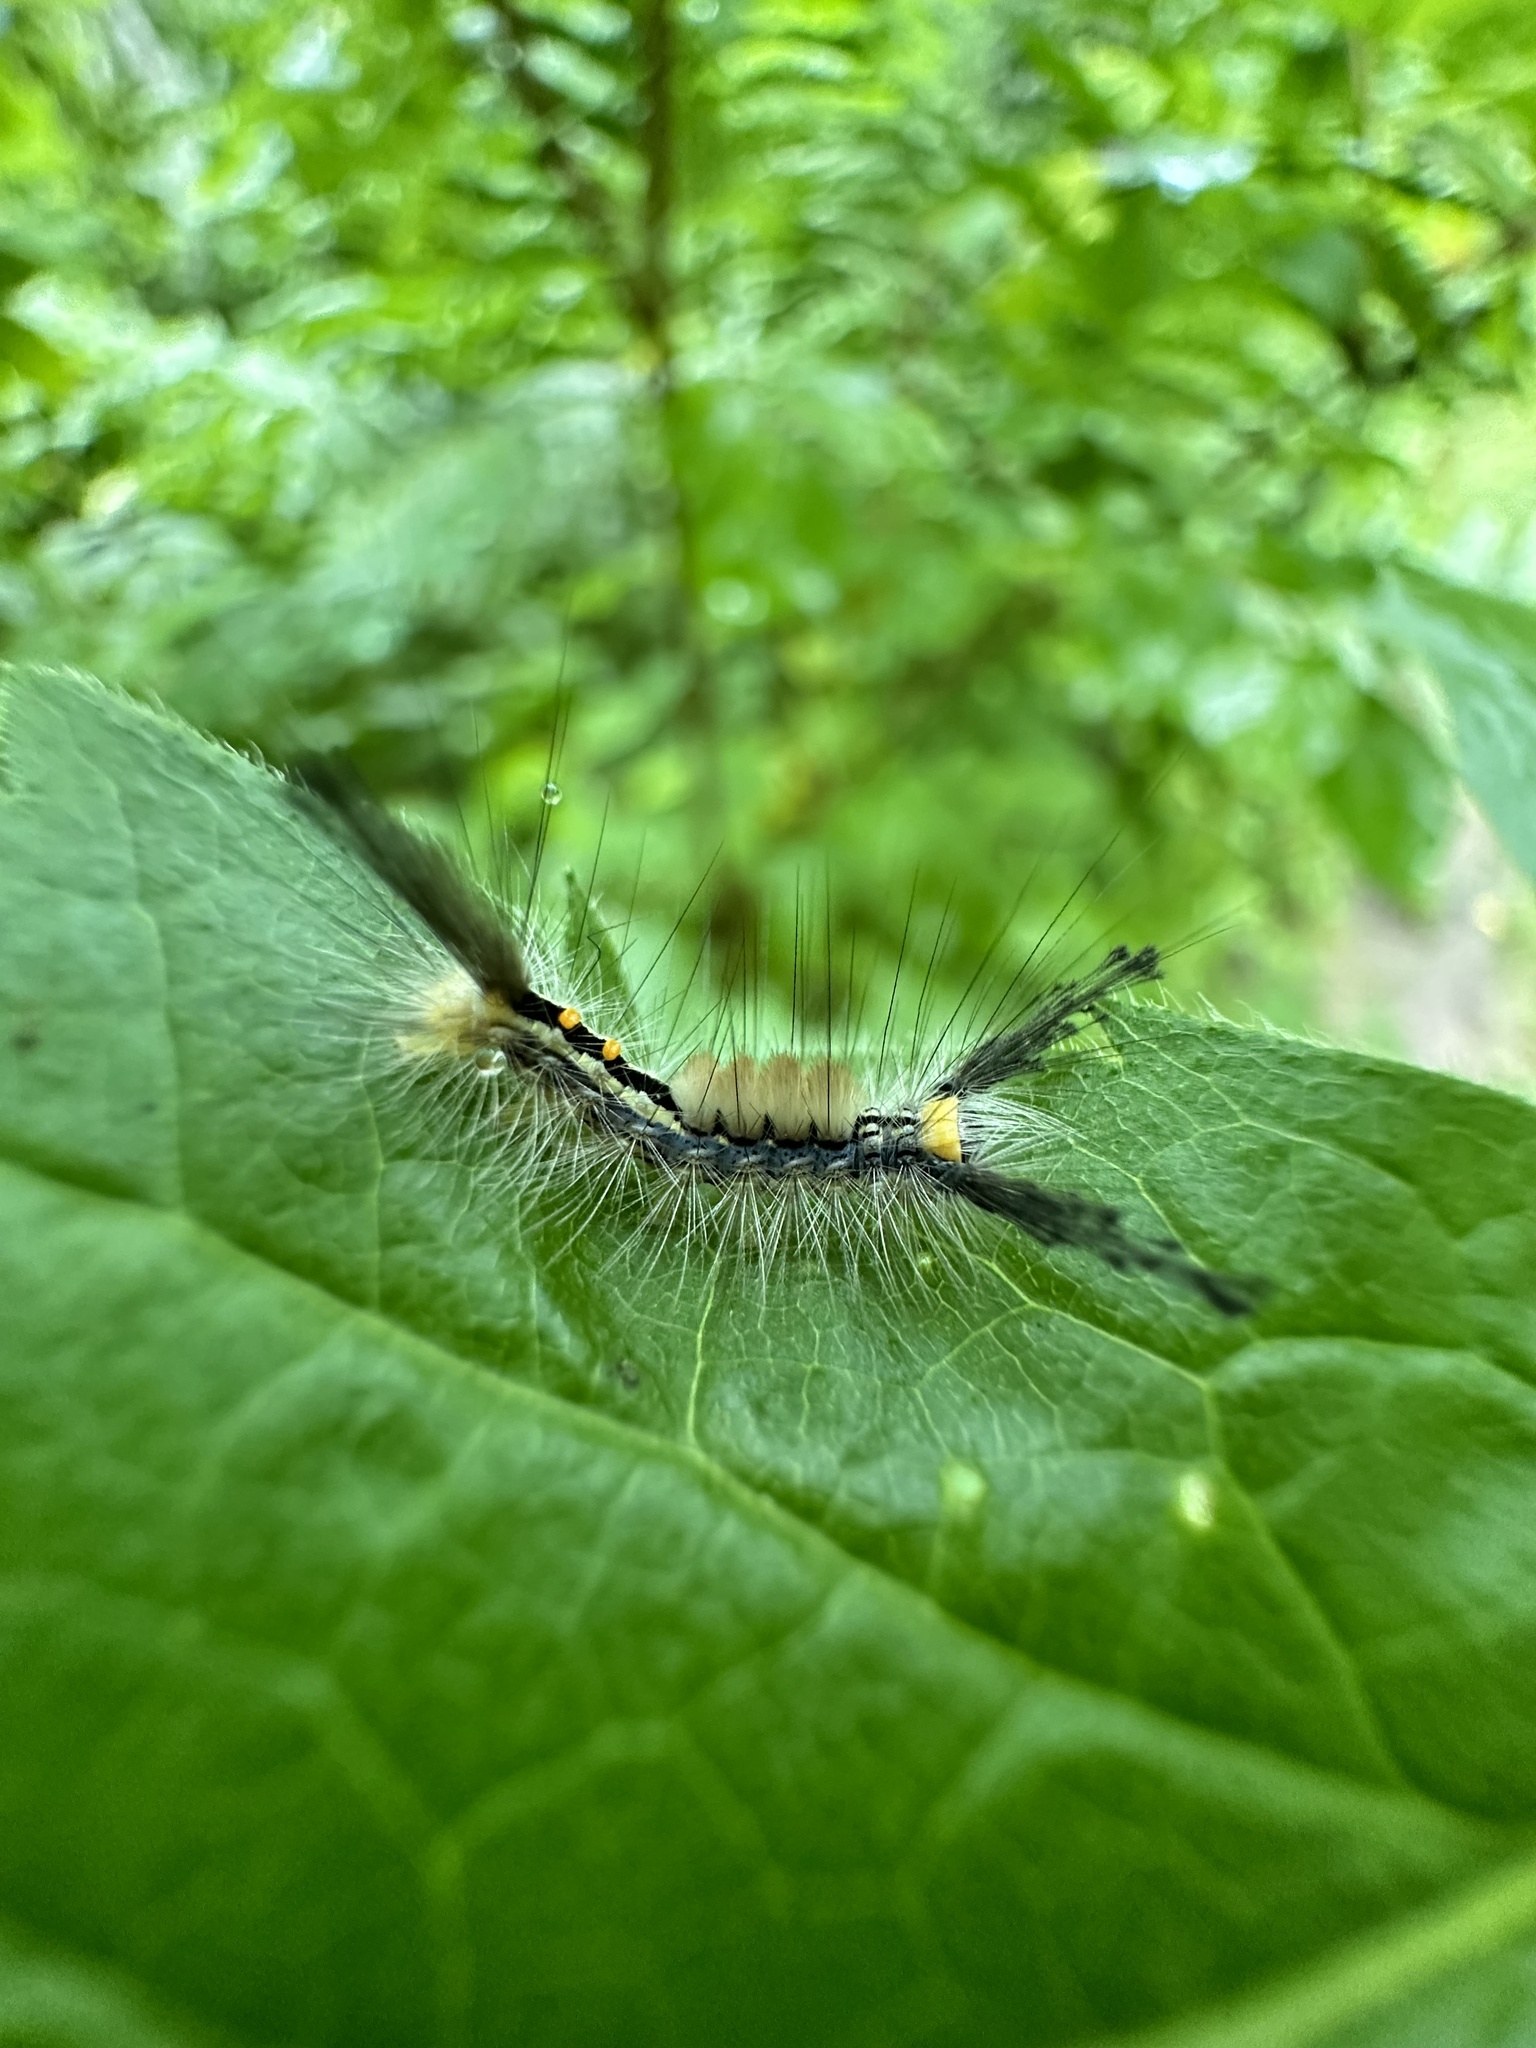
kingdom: Animalia
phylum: Arthropoda
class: Insecta
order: Lepidoptera
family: Erebidae
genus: Orgyia
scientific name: Orgyia leucostigma
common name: White-marked tussock moth
